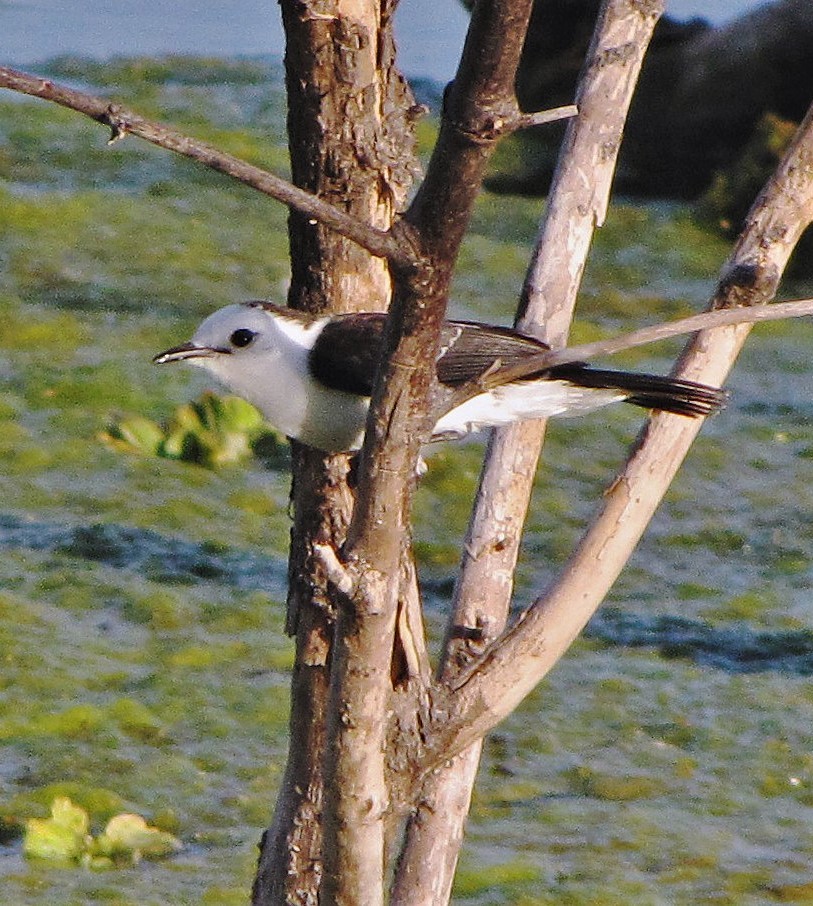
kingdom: Animalia
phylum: Chordata
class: Aves
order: Passeriformes
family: Tyrannidae
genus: Fluvicola
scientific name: Fluvicola pica
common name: Pied water-tyrant
